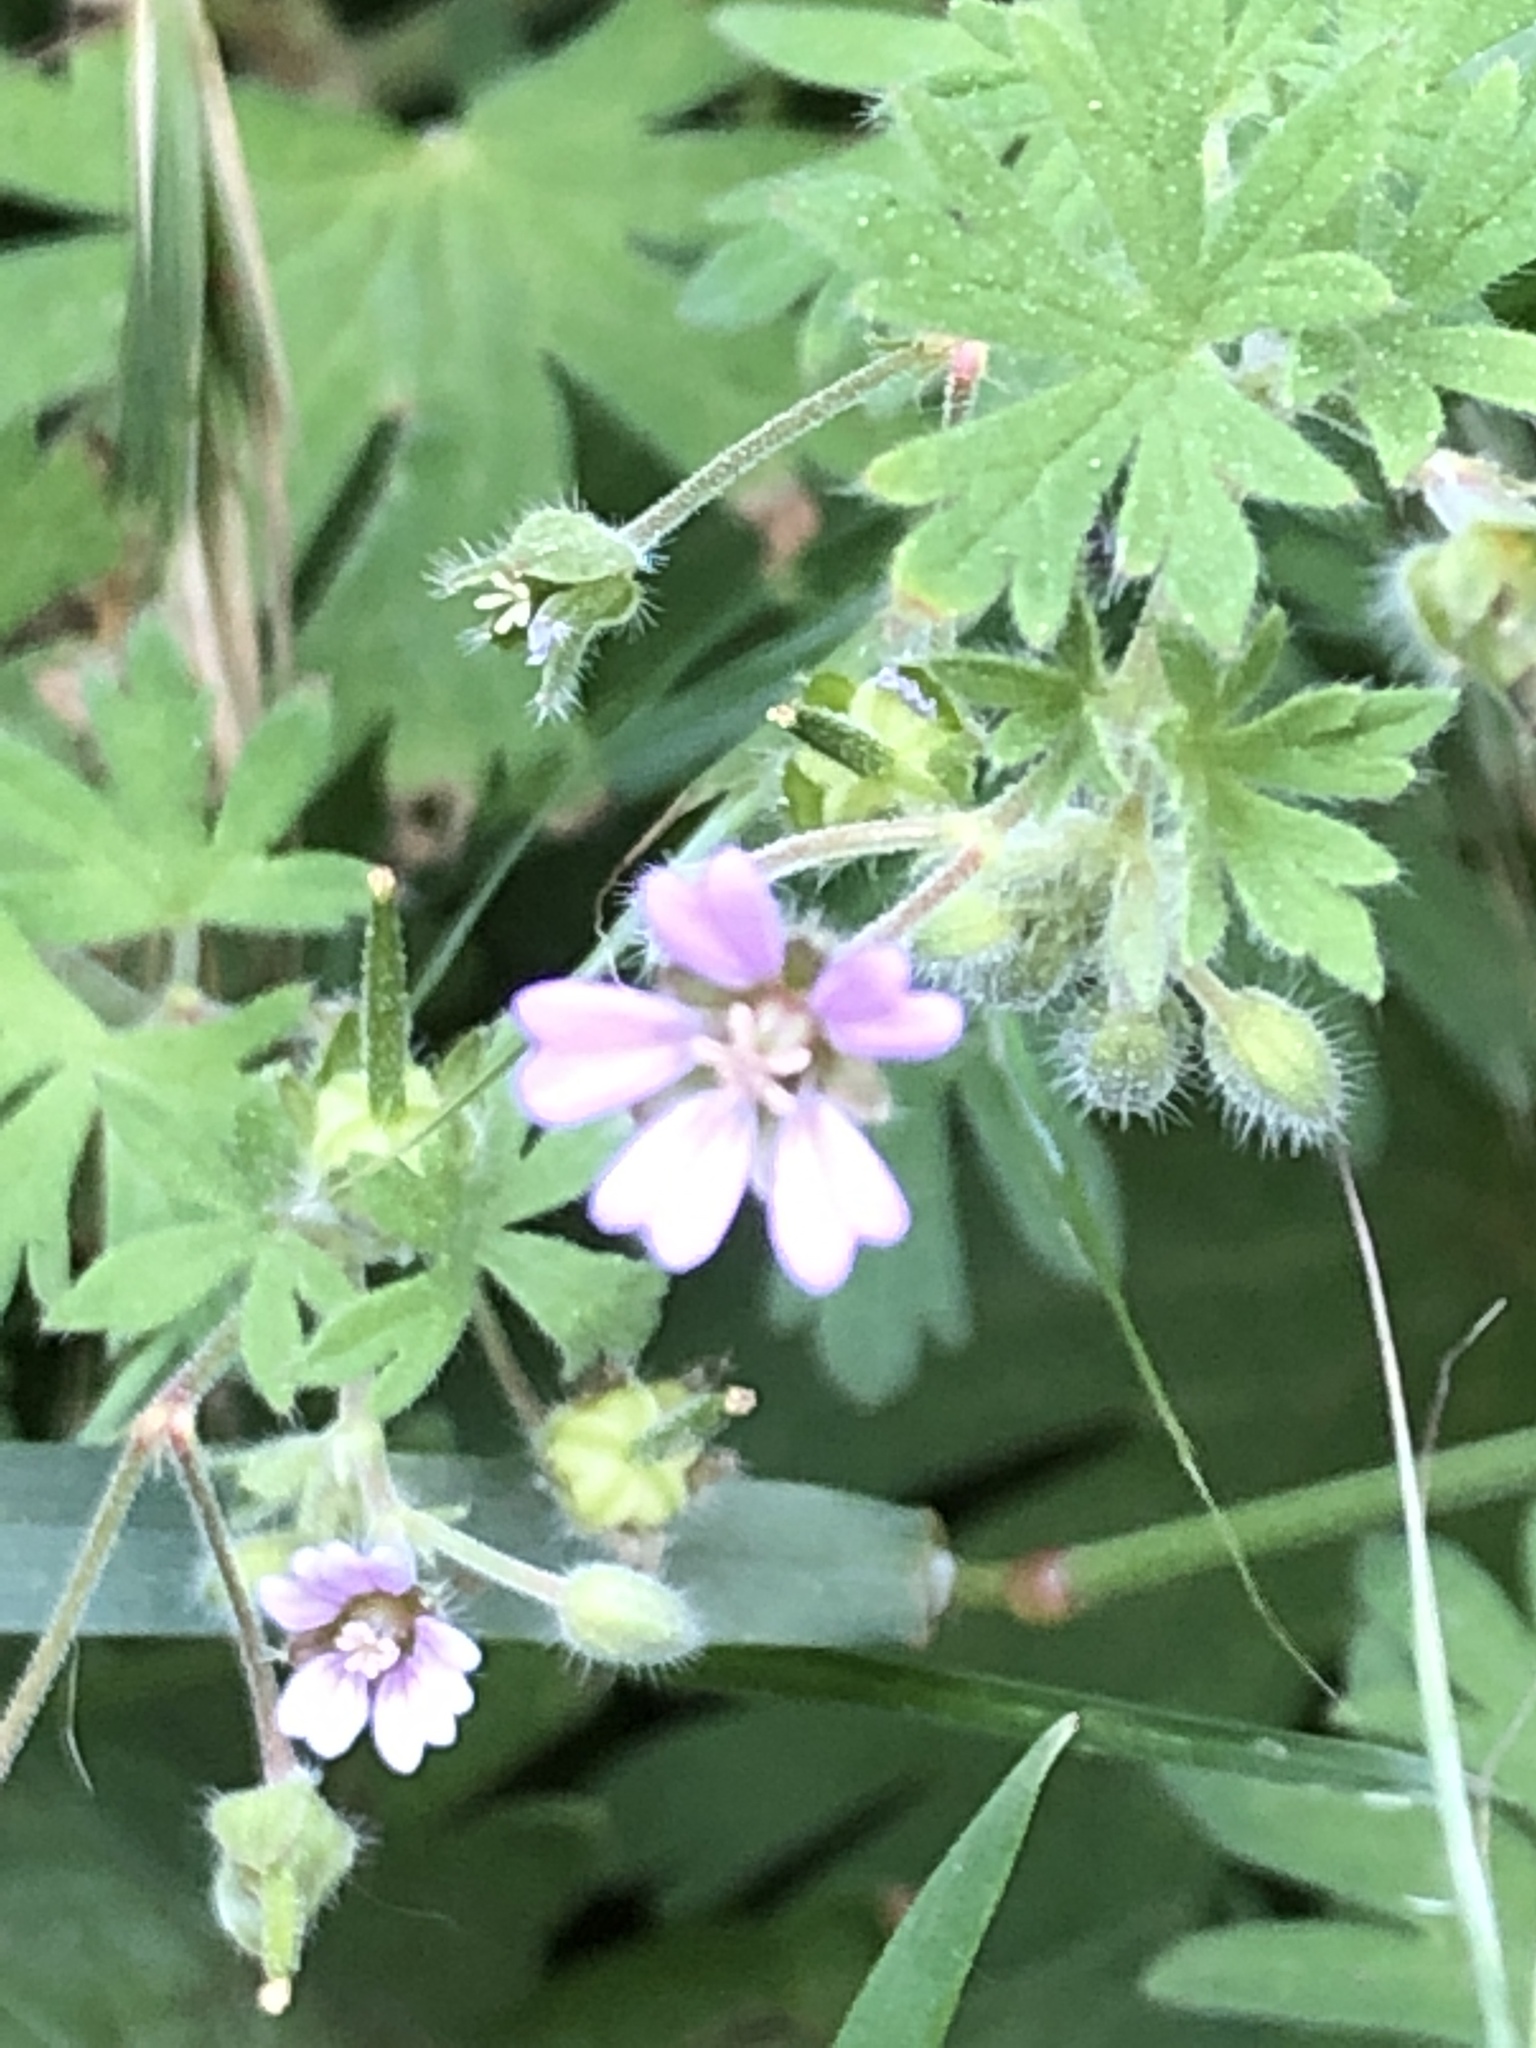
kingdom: Plantae
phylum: Tracheophyta
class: Magnoliopsida
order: Geraniales
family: Geraniaceae
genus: Geranium
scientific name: Geranium pusillum
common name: Small geranium
